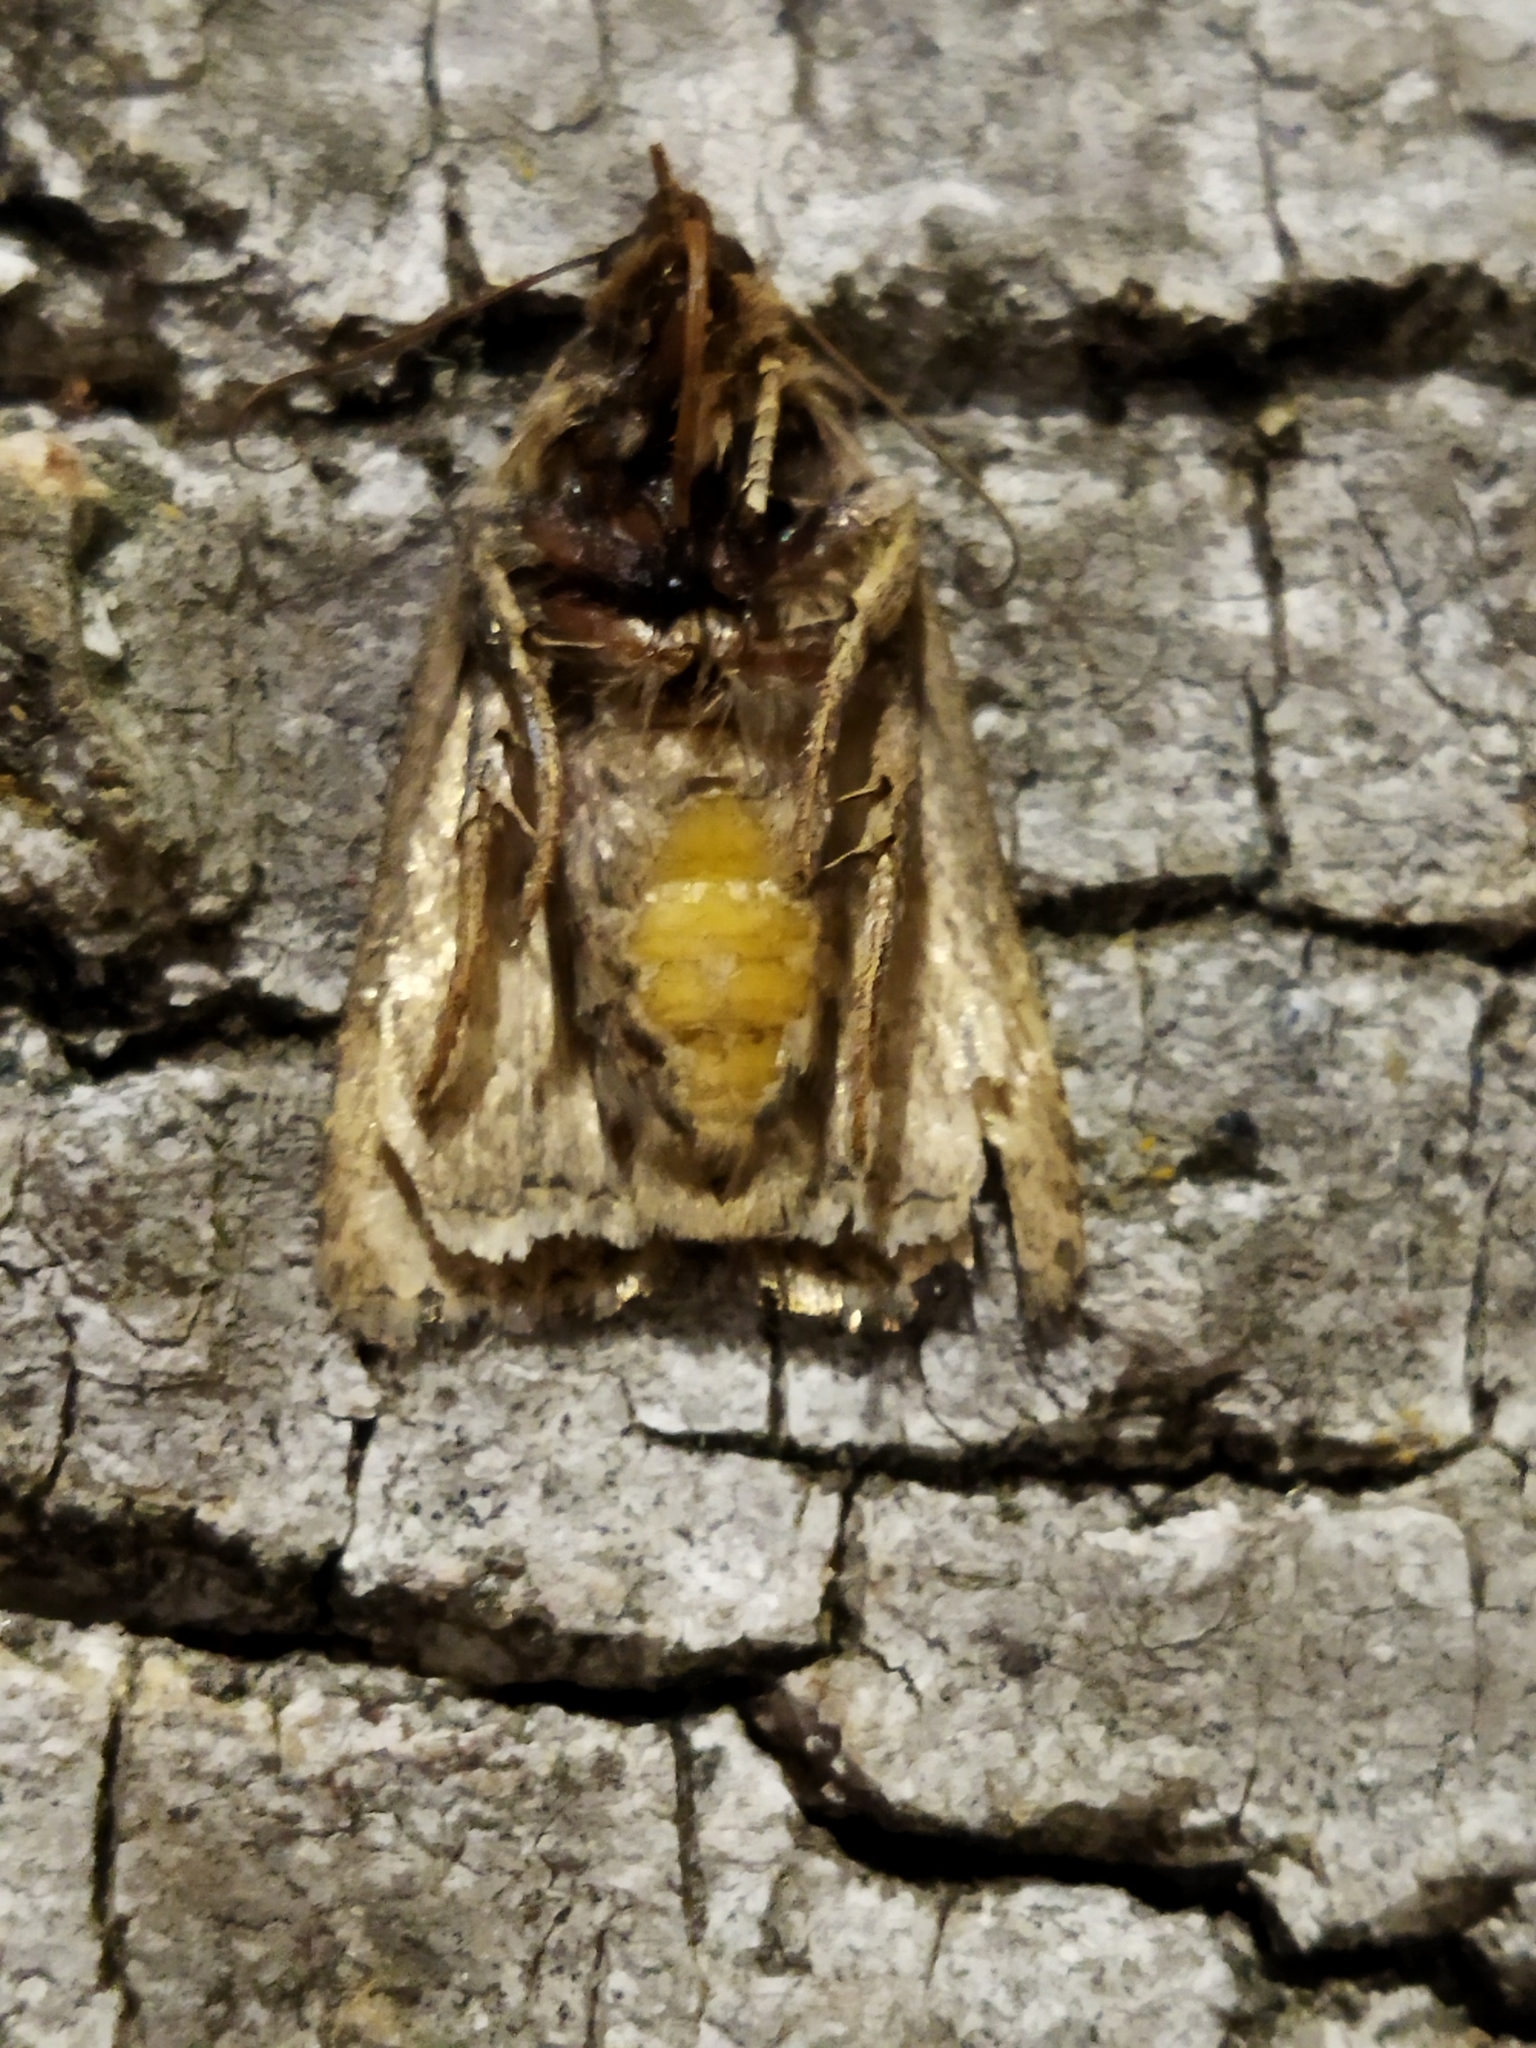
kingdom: Animalia
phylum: Arthropoda
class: Insecta
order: Lepidoptera
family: Noctuidae
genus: Amphipyra
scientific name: Amphipyra tragopoginis
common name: Mouse moth
